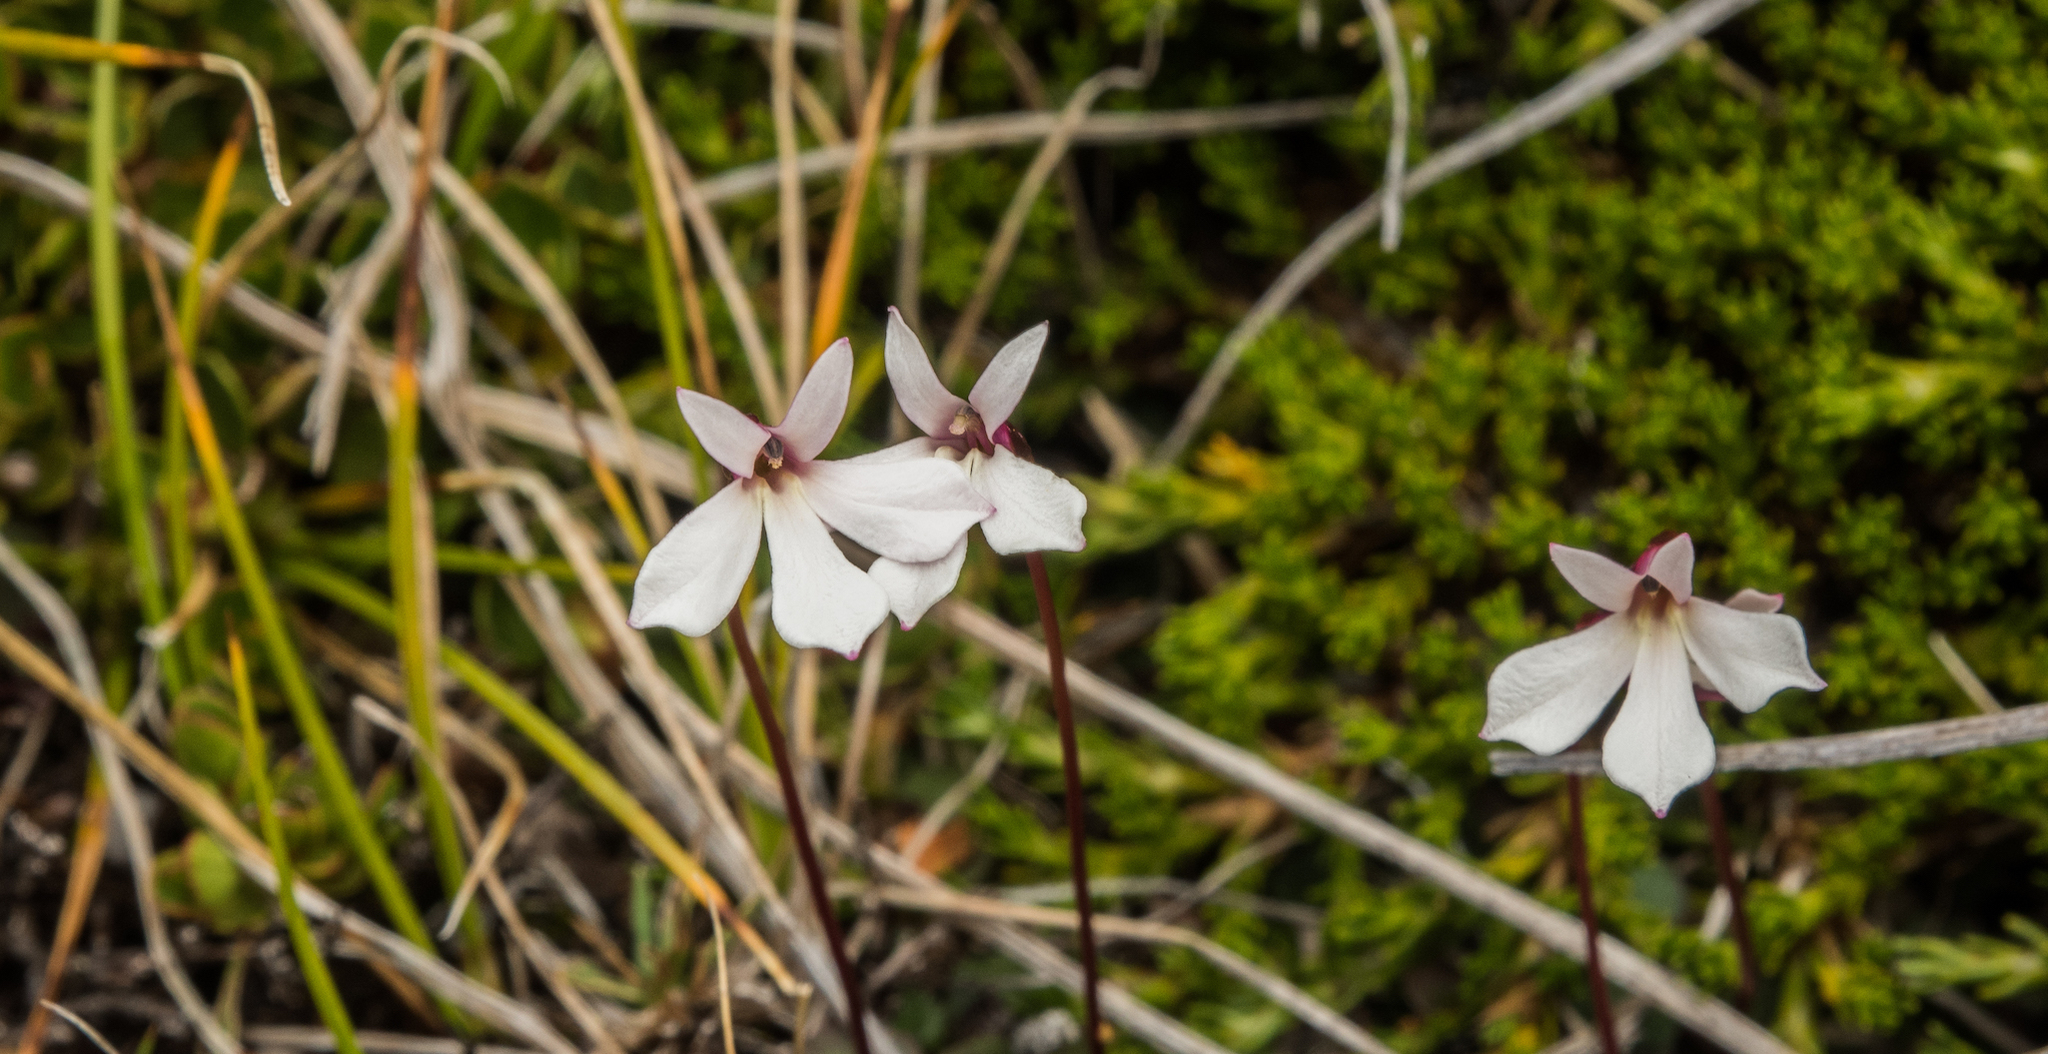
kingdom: Plantae
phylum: Tracheophyta
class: Magnoliopsida
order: Asterales
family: Campanulaceae
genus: Lobelia
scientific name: Lobelia angulata
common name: Lawn lobelia
